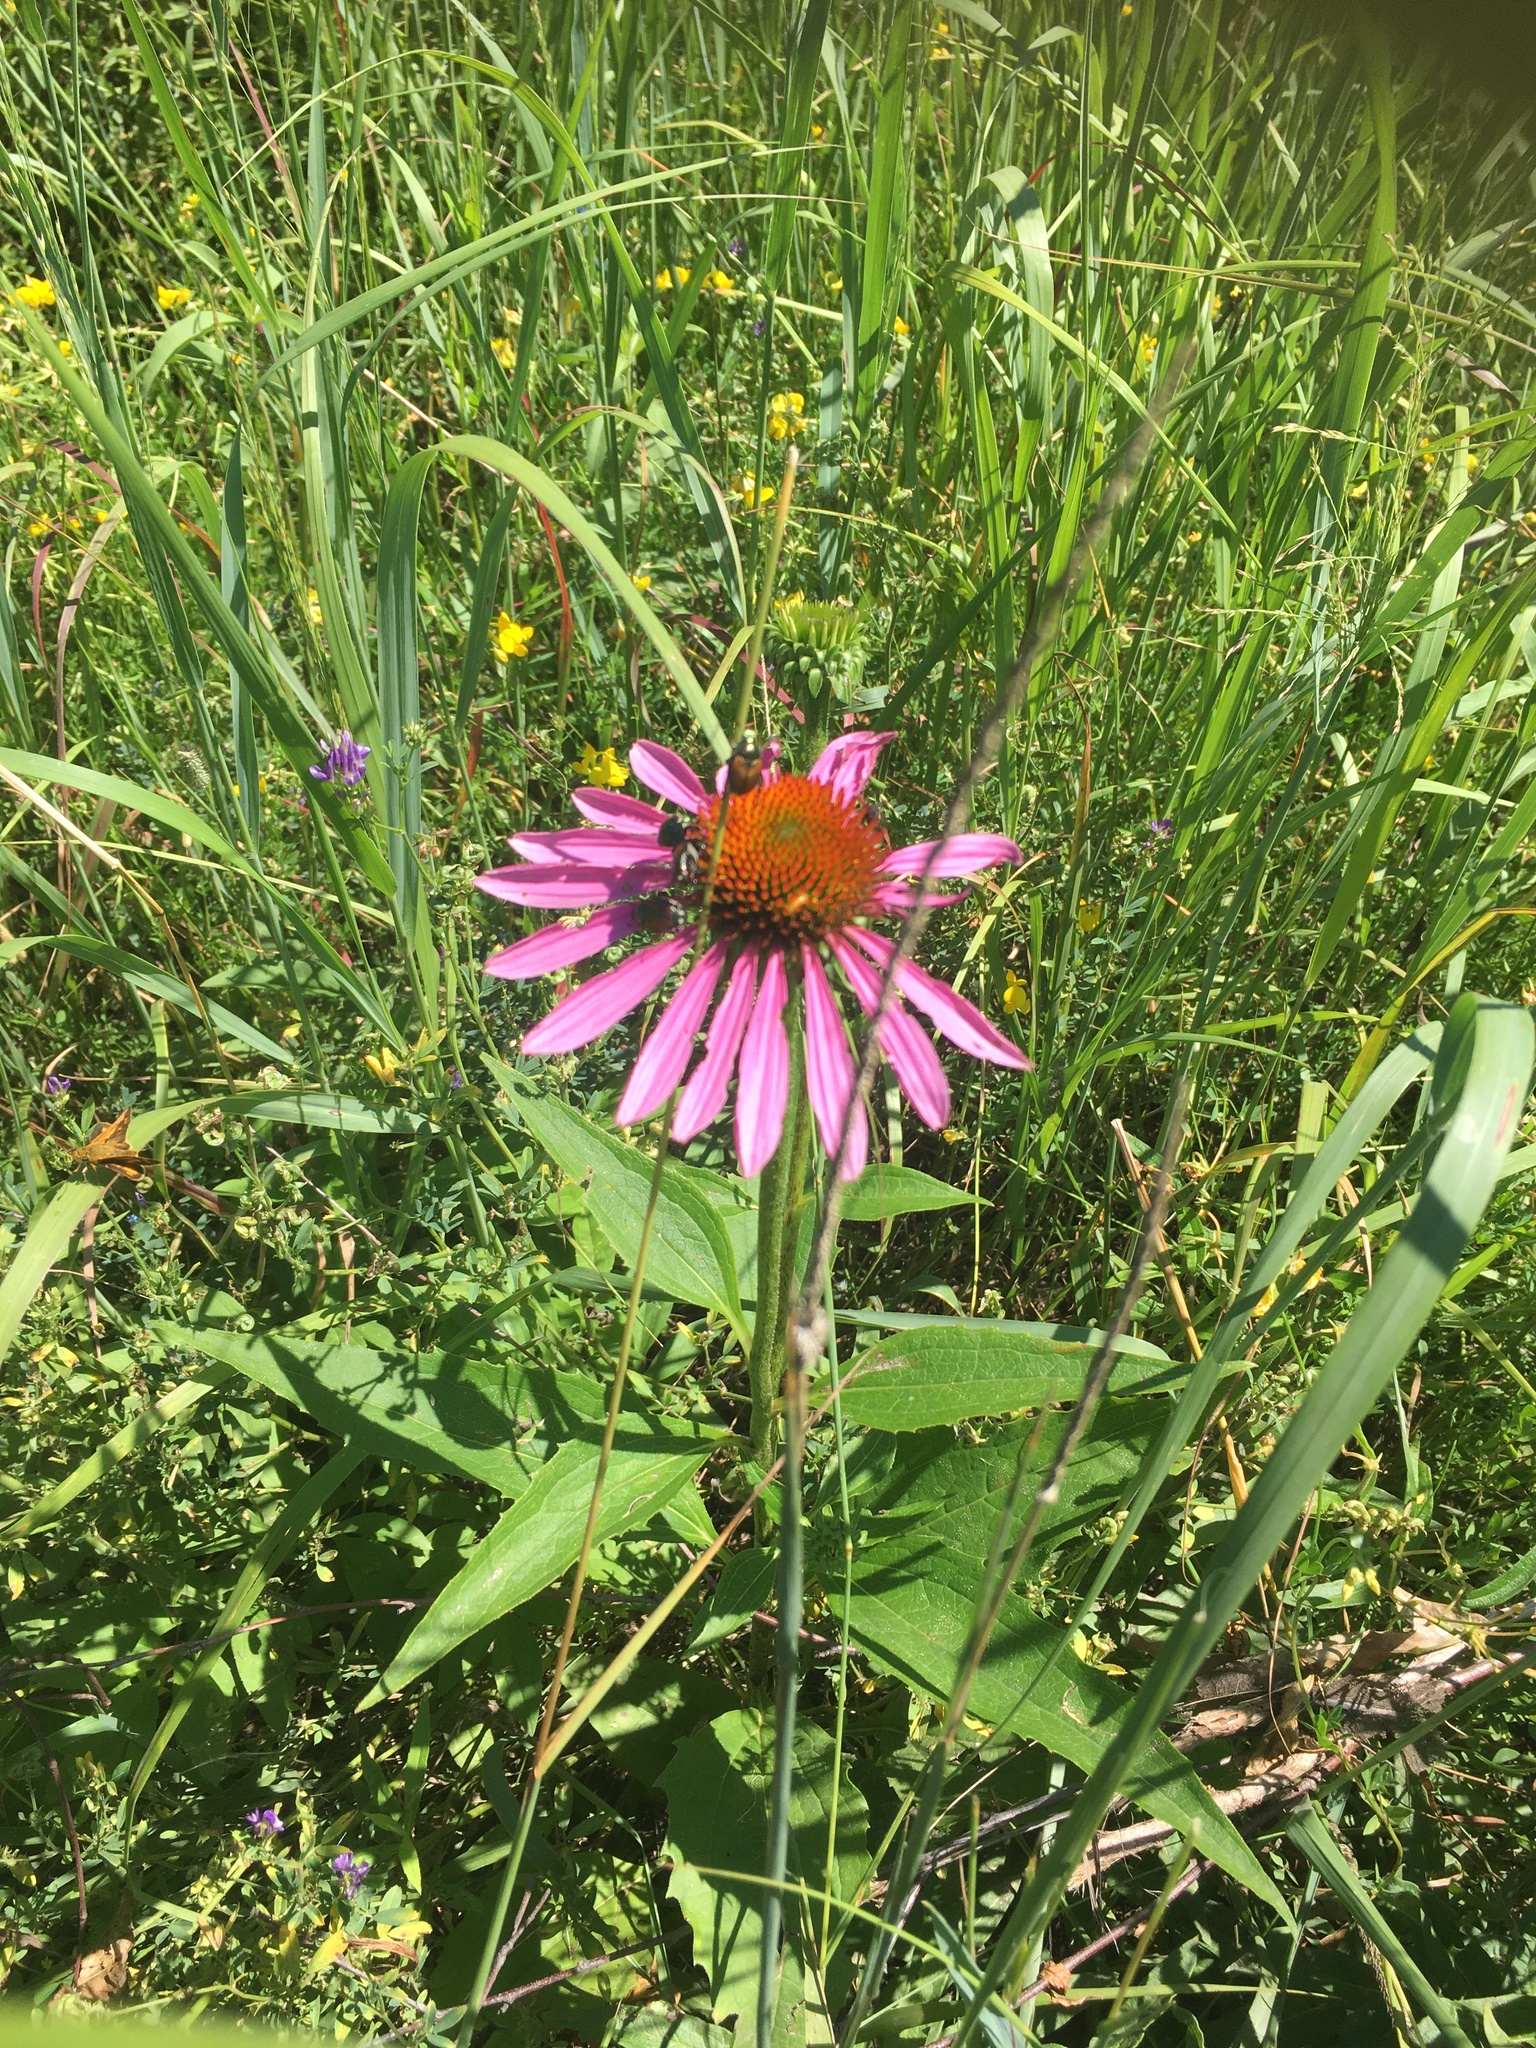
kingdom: Plantae
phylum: Tracheophyta
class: Magnoliopsida
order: Asterales
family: Asteraceae
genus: Echinacea
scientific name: Echinacea purpurea
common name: Broad-leaved purple coneflower
